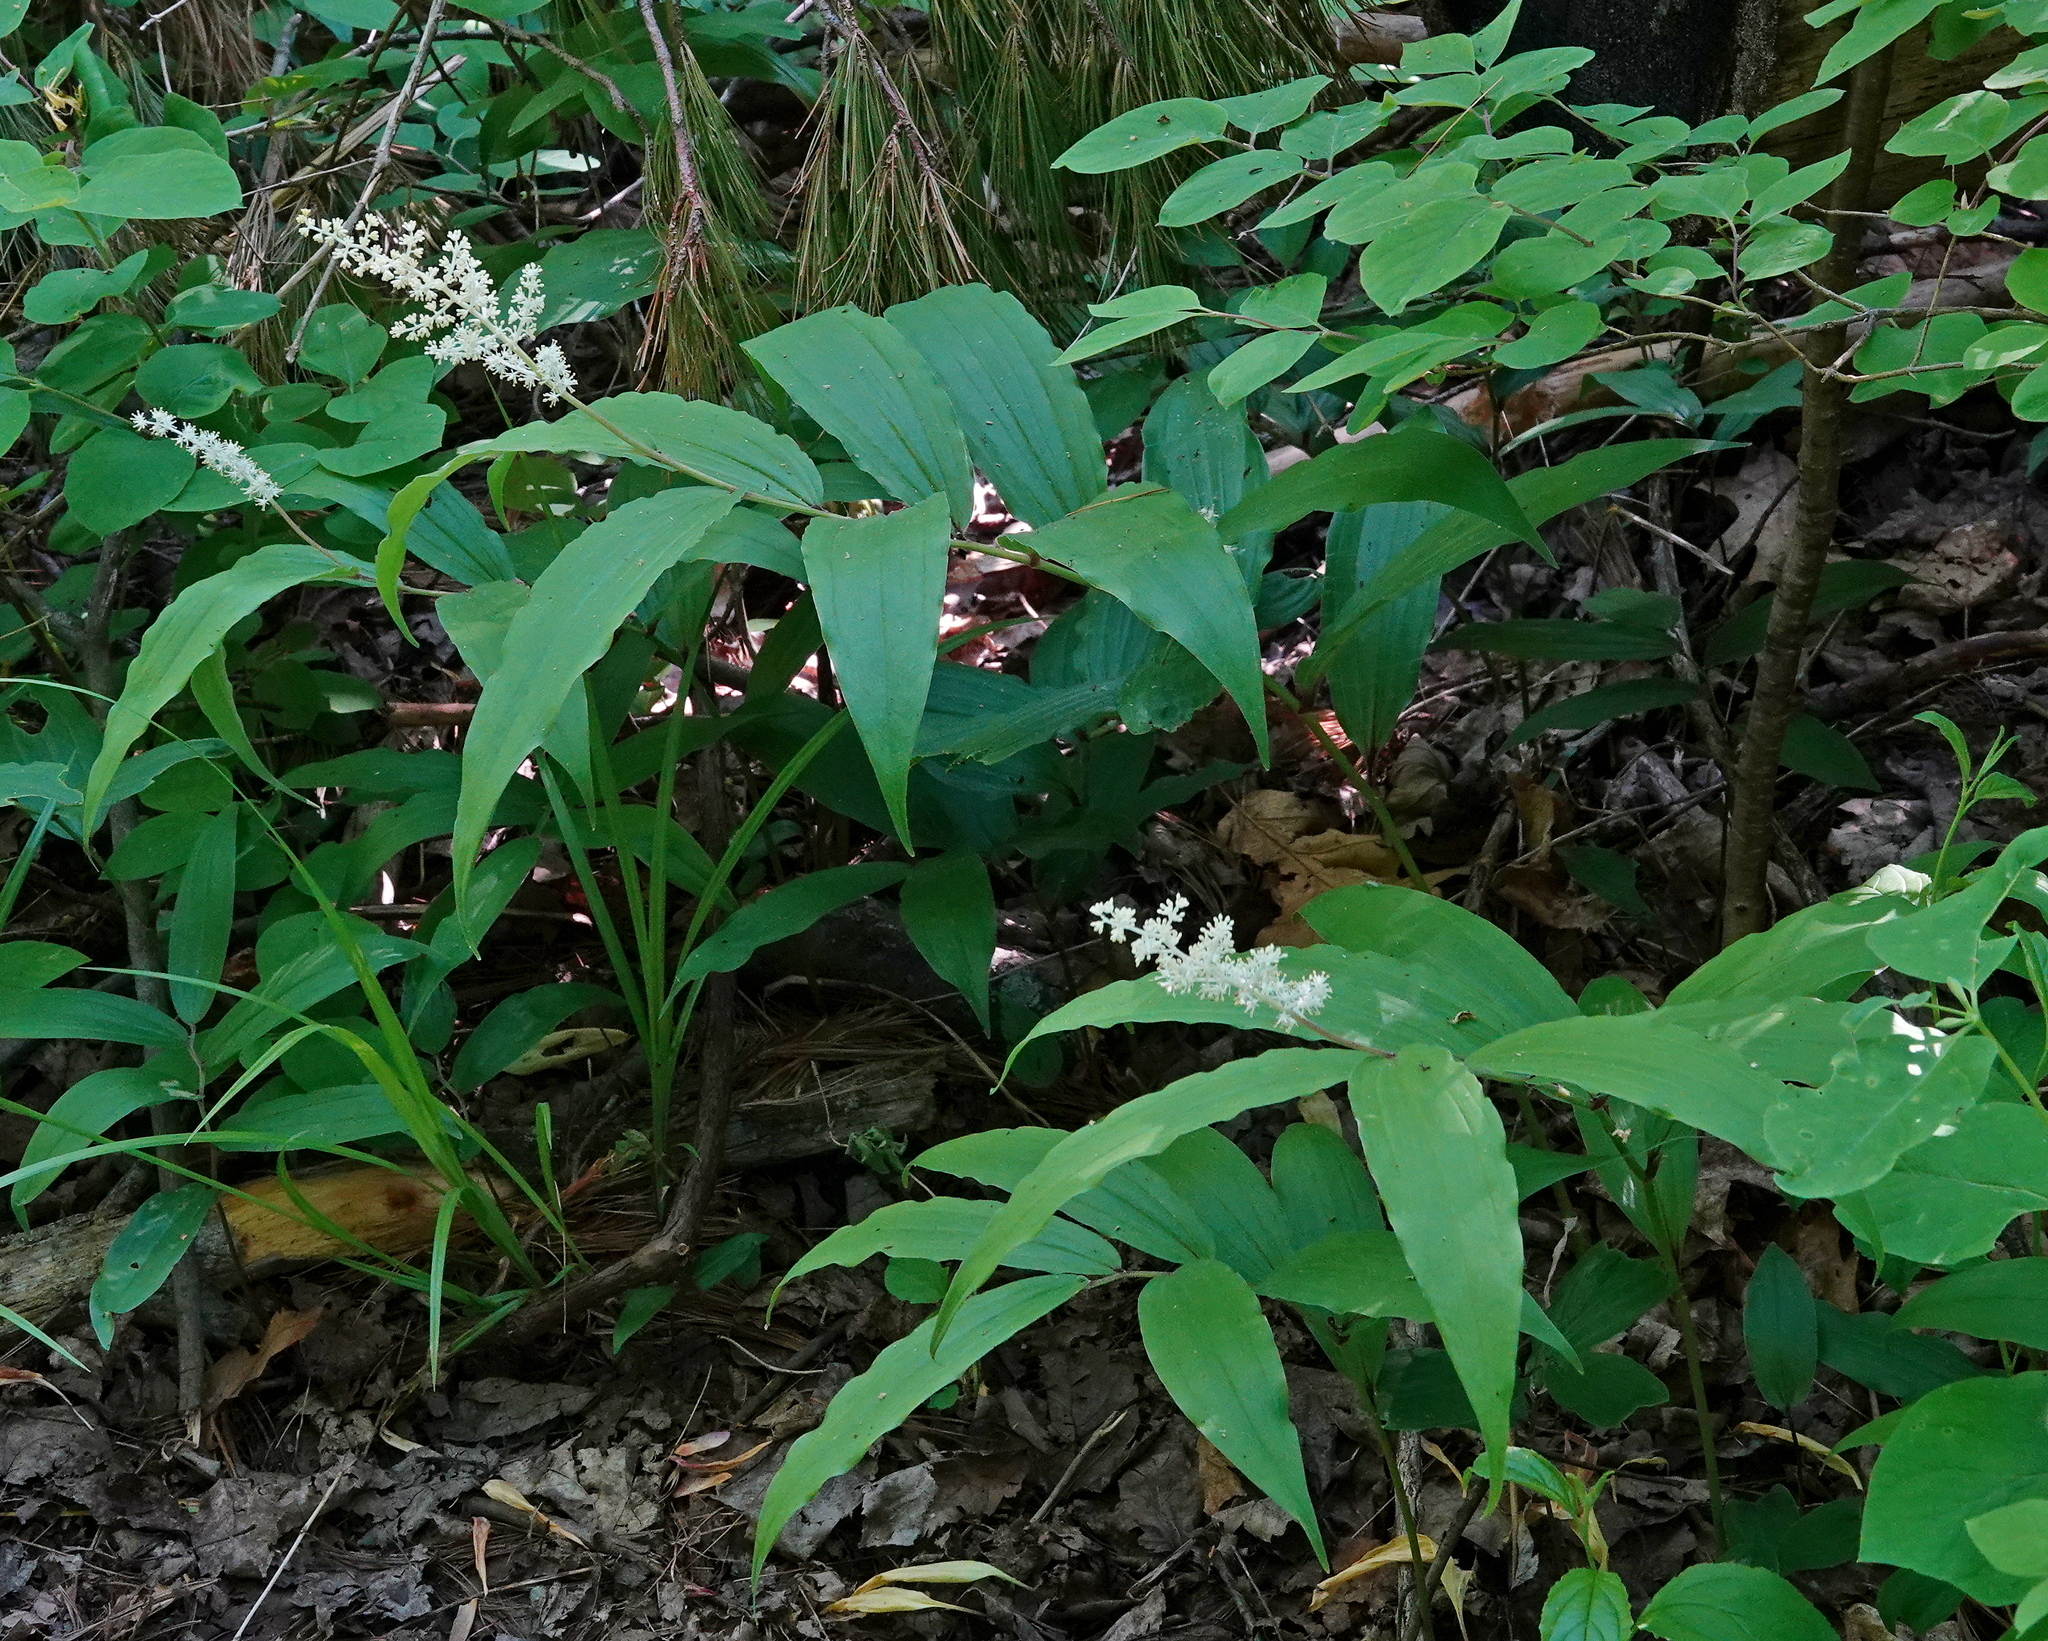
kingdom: Plantae
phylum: Tracheophyta
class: Liliopsida
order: Asparagales
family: Asparagaceae
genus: Maianthemum
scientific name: Maianthemum racemosum
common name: False spikenard
